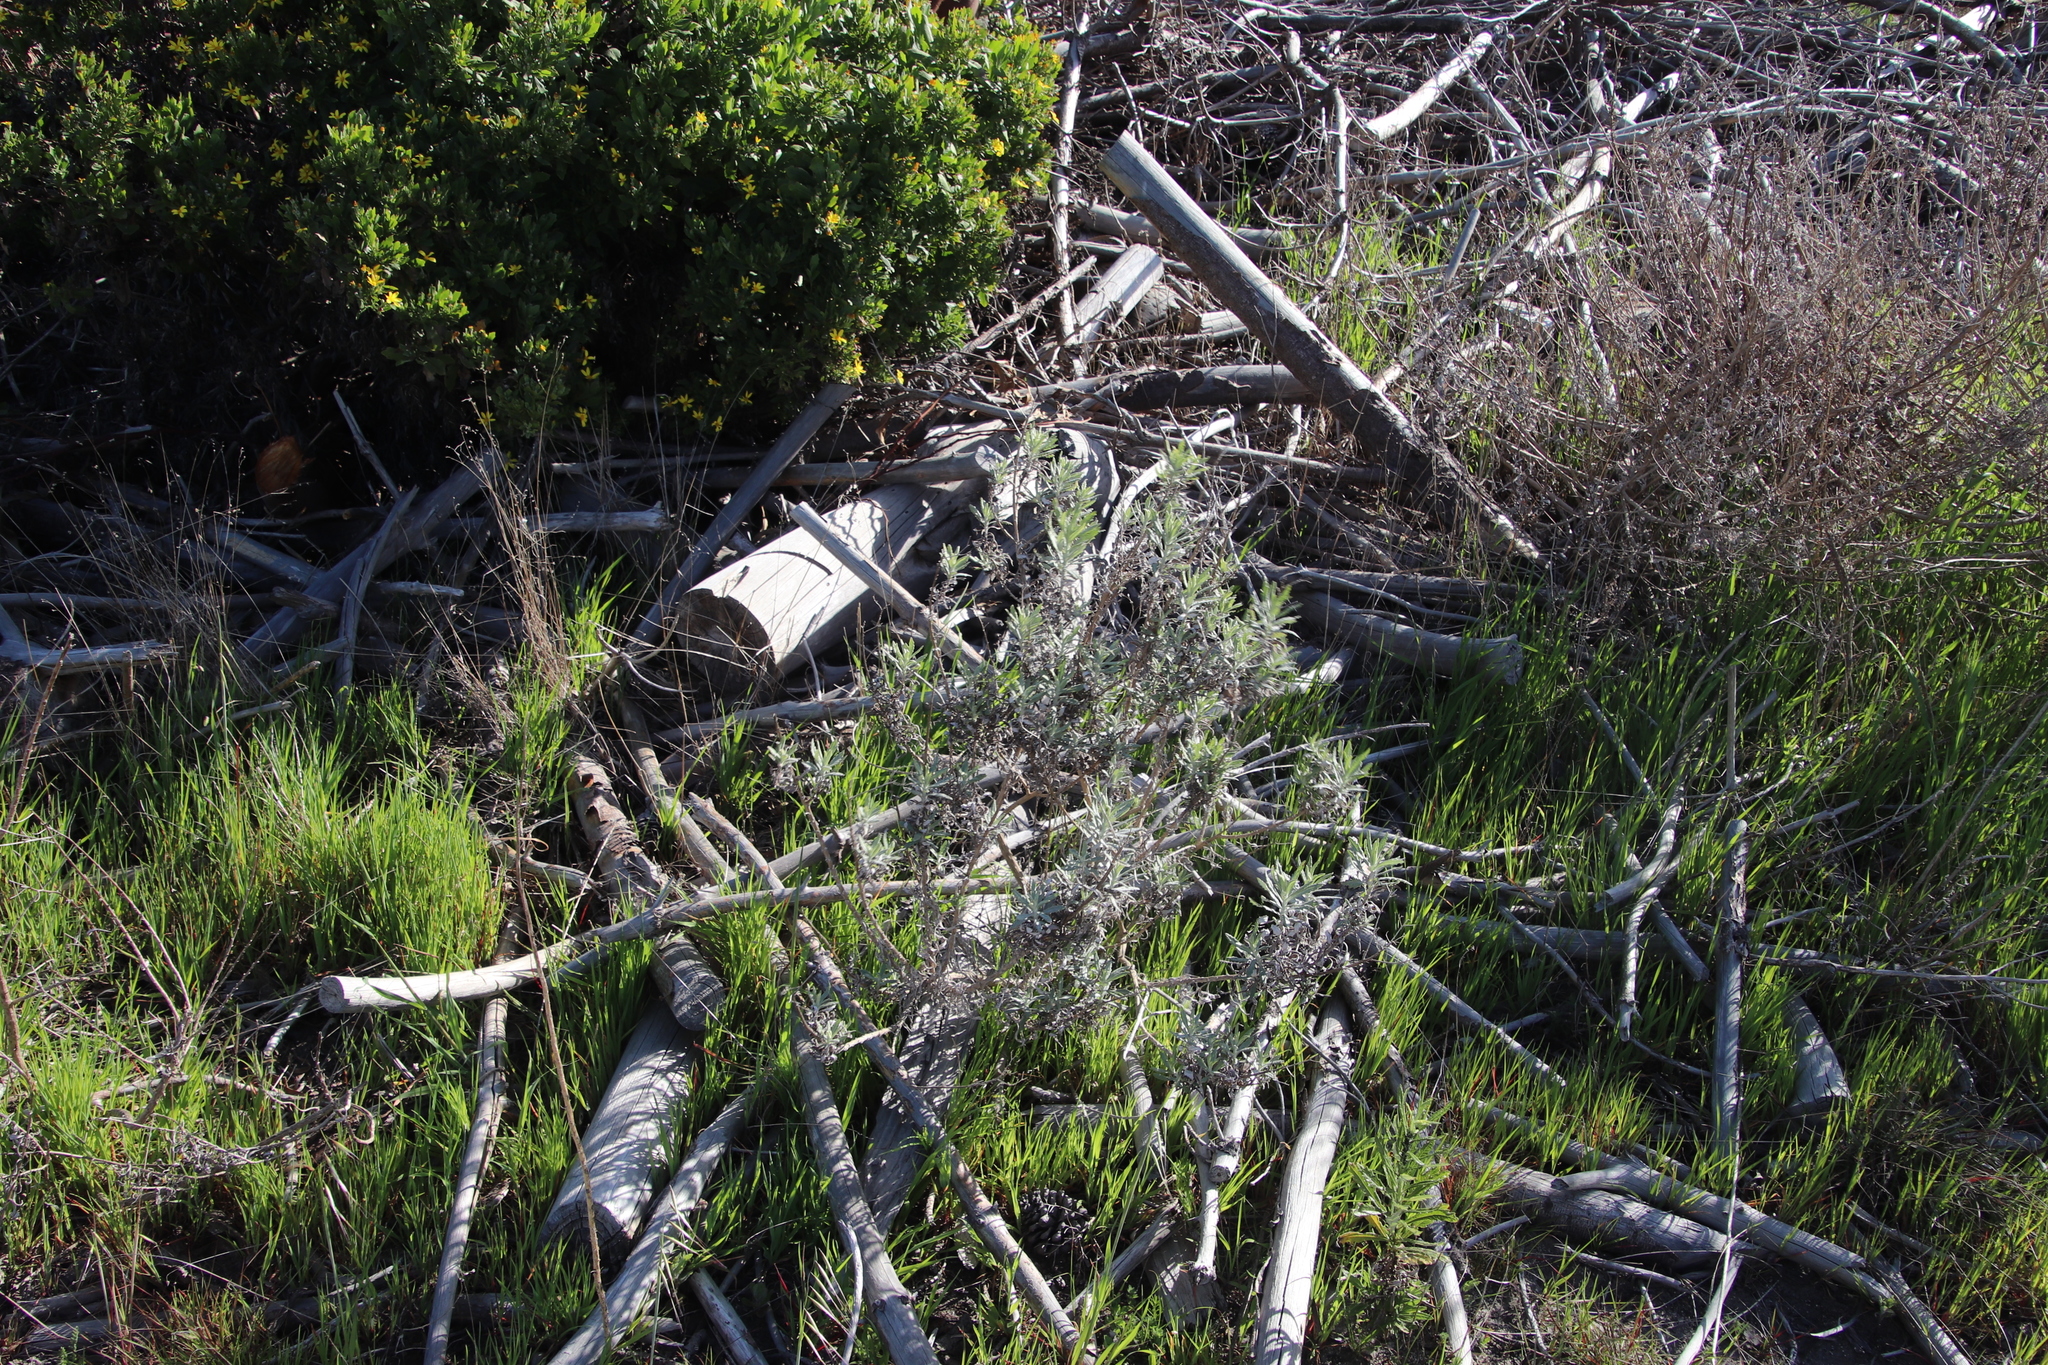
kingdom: Plantae
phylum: Tracheophyta
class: Magnoliopsida
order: Asterales
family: Asteraceae
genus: Senecio
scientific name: Senecio pterophorus
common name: Shoddy ragwort
